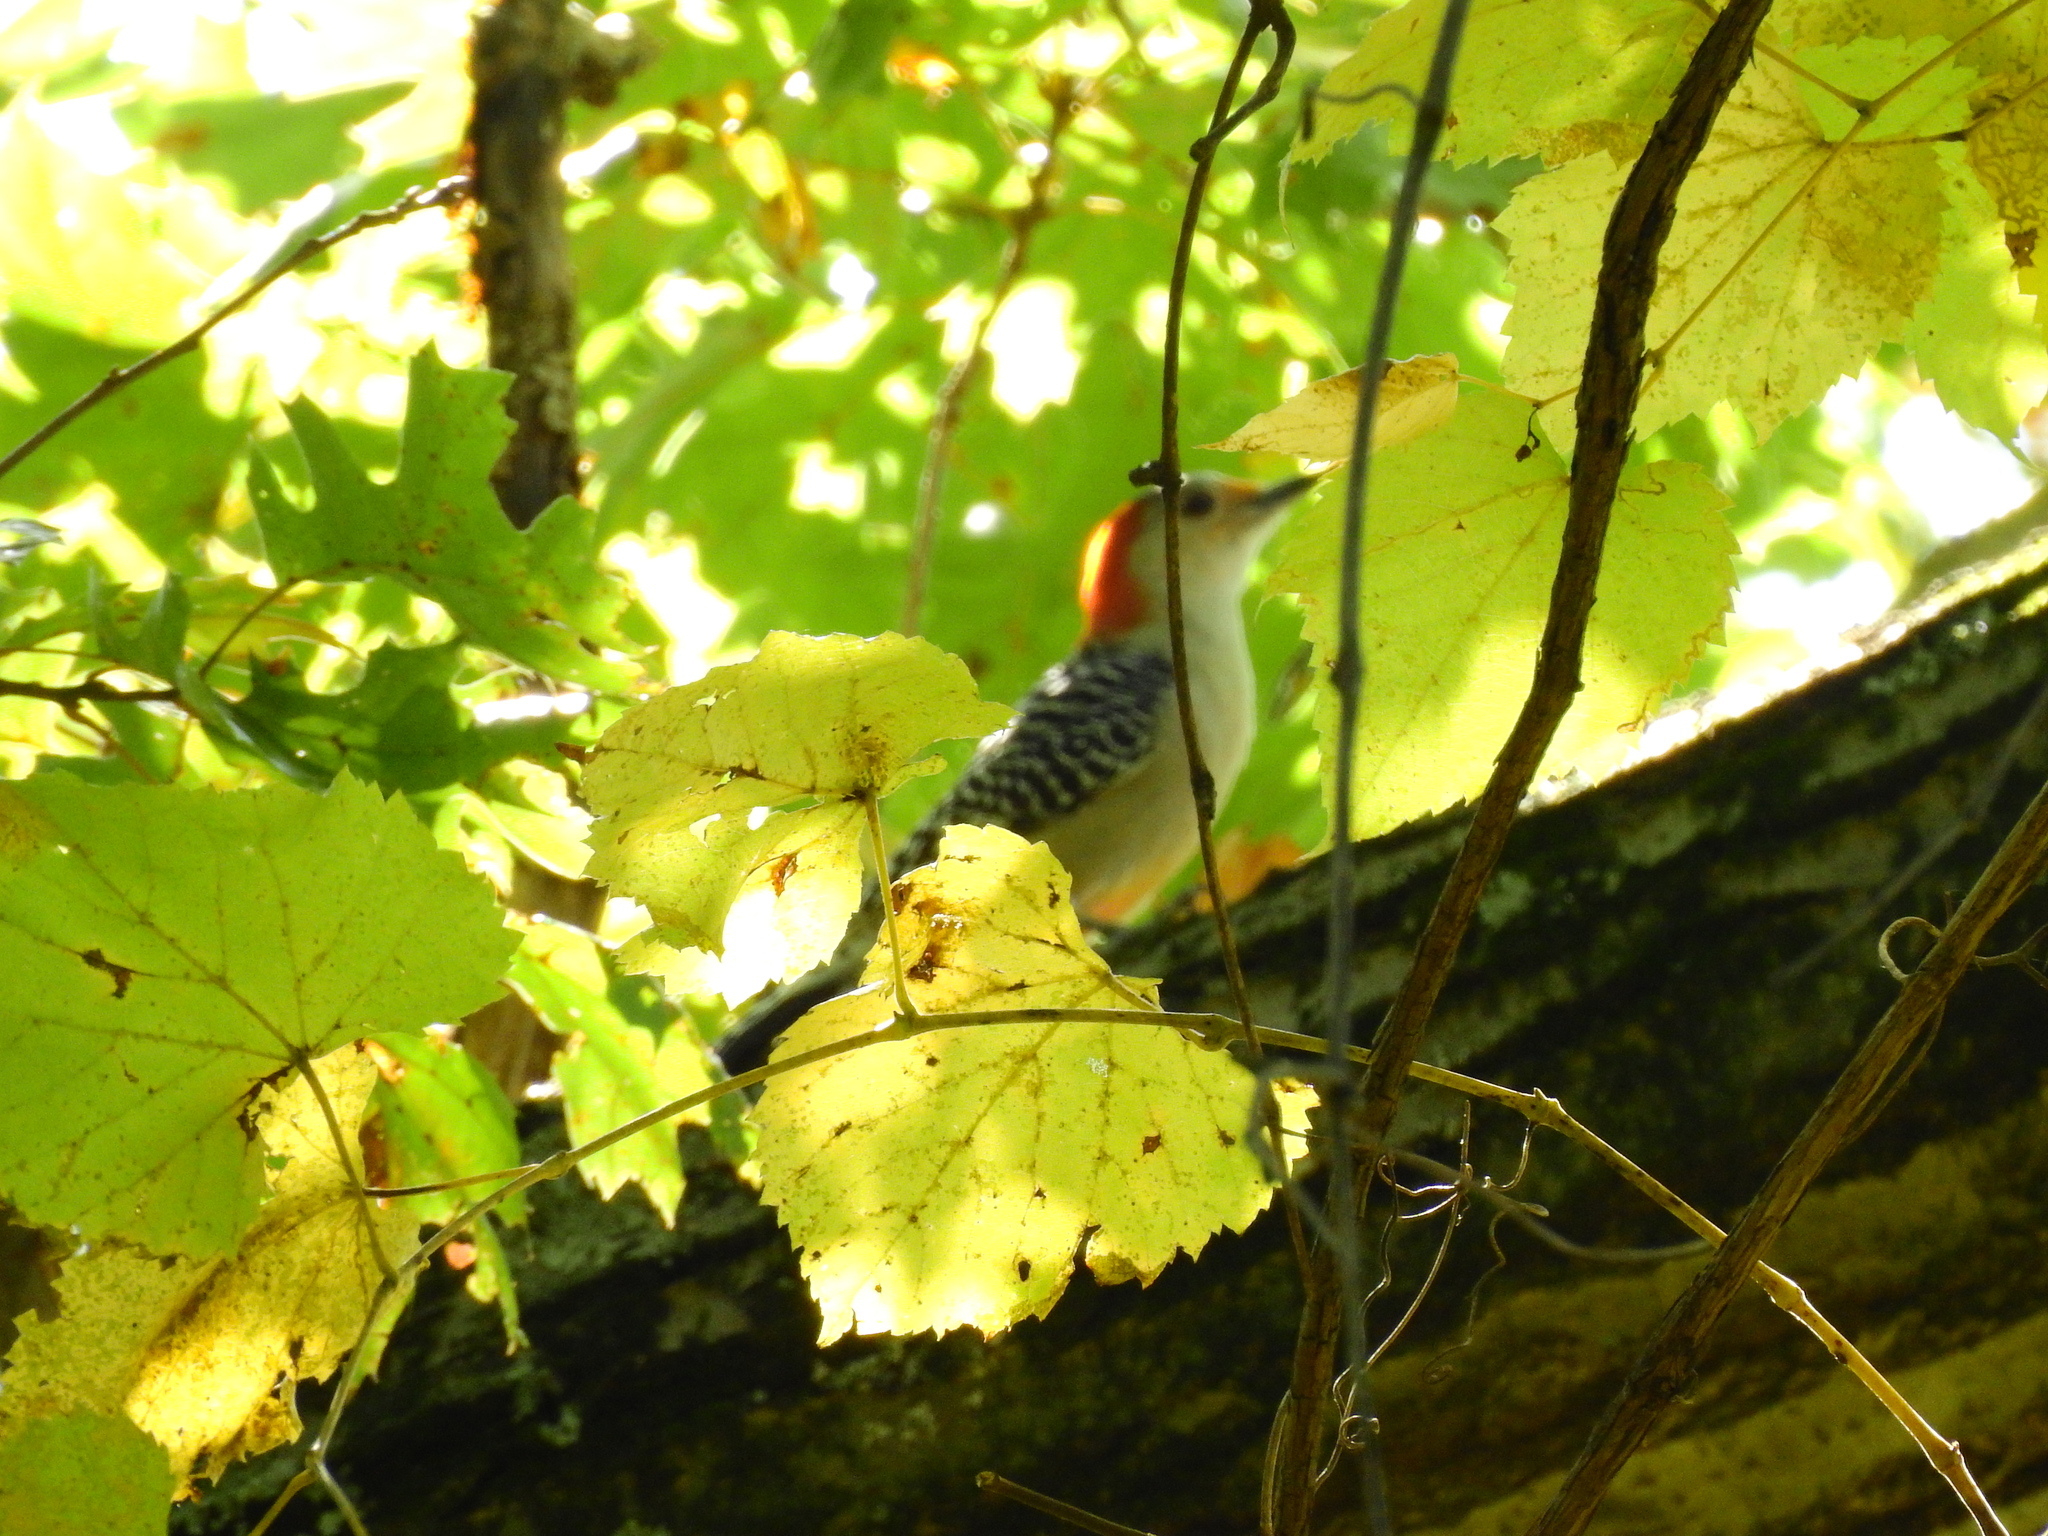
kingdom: Animalia
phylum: Chordata
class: Aves
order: Piciformes
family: Picidae
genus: Melanerpes
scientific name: Melanerpes carolinus
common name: Red-bellied woodpecker
